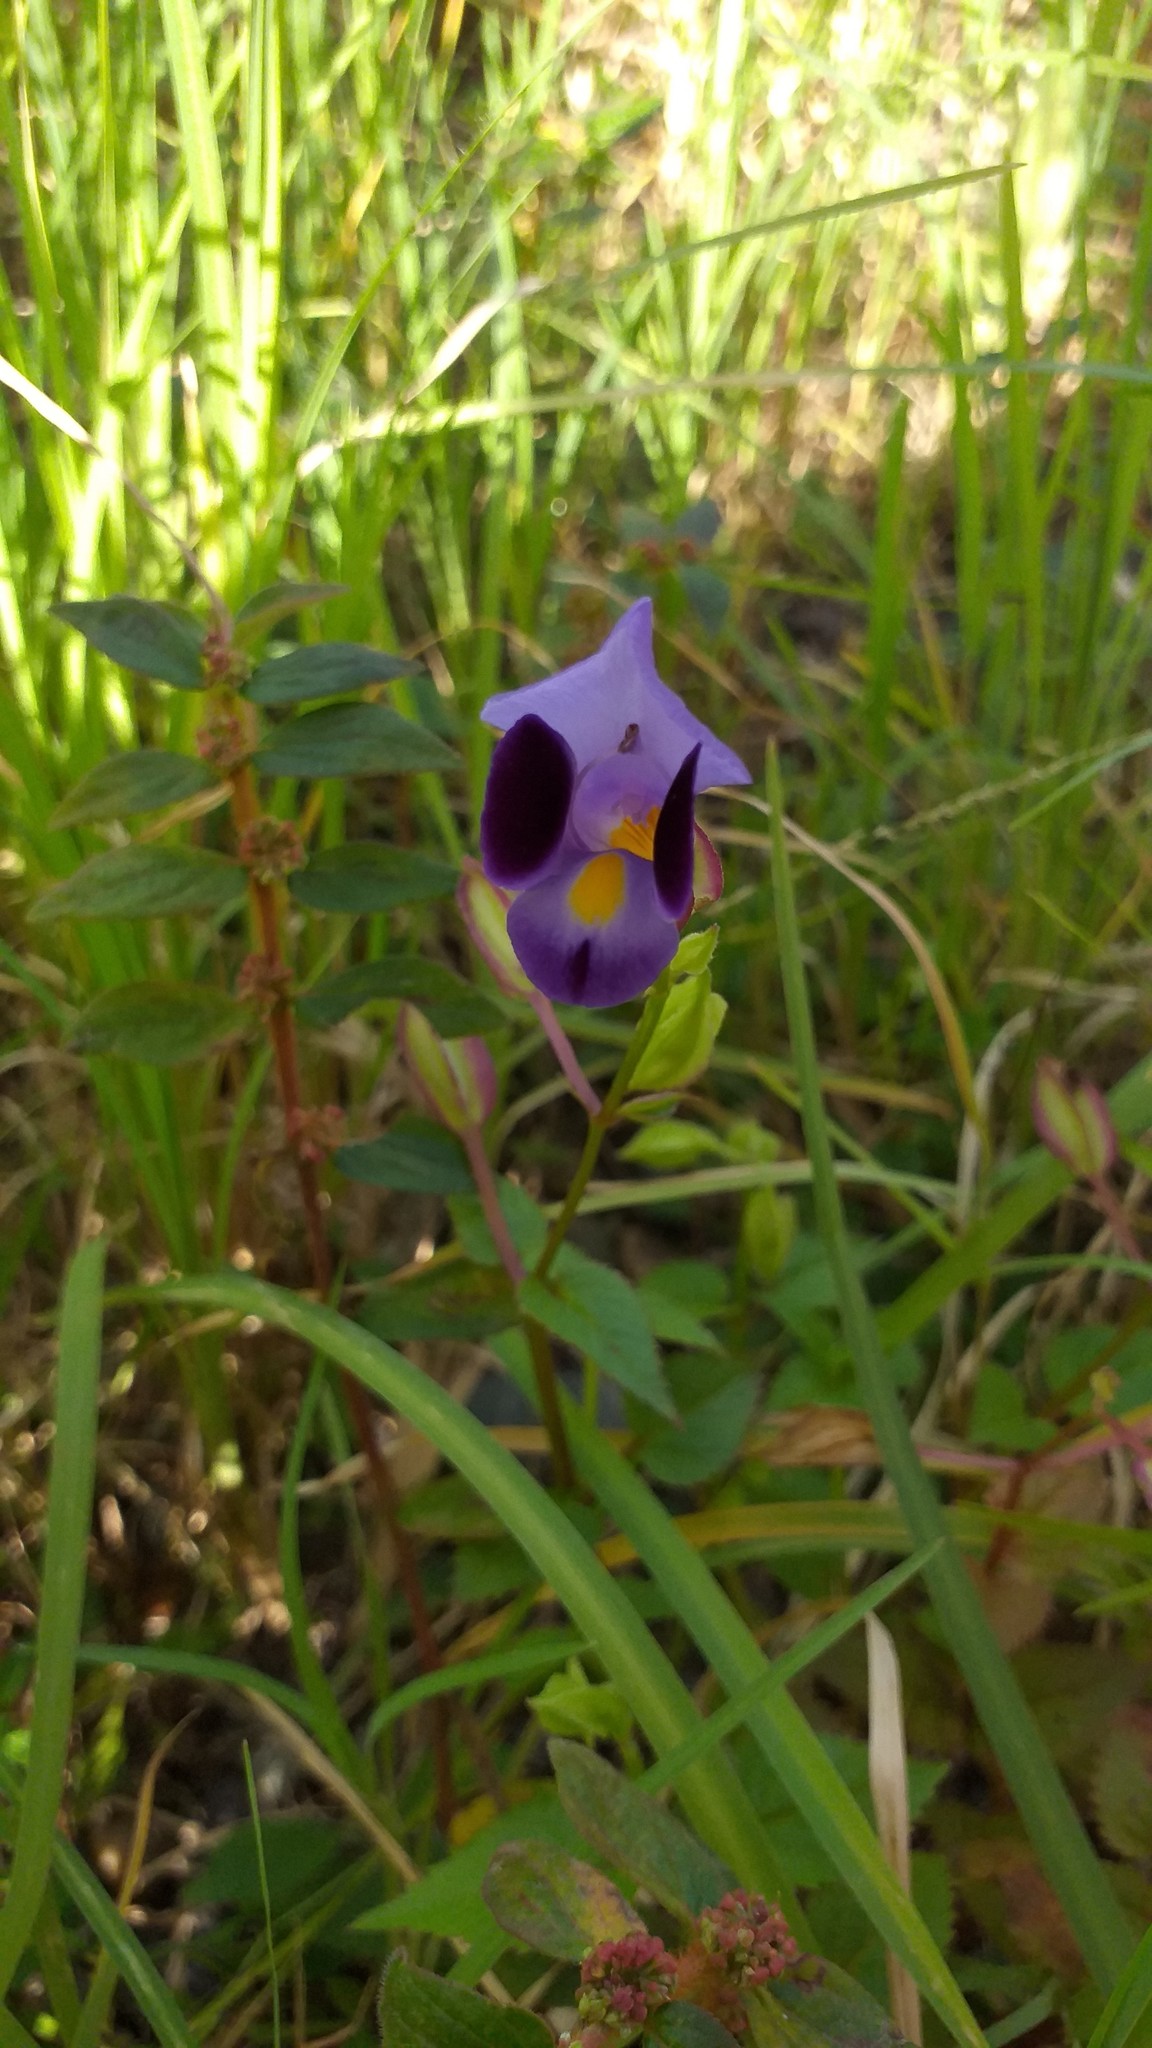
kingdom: Plantae
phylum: Tracheophyta
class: Magnoliopsida
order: Lamiales
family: Linderniaceae
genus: Torenia
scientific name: Torenia fournieri
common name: Bluewings
